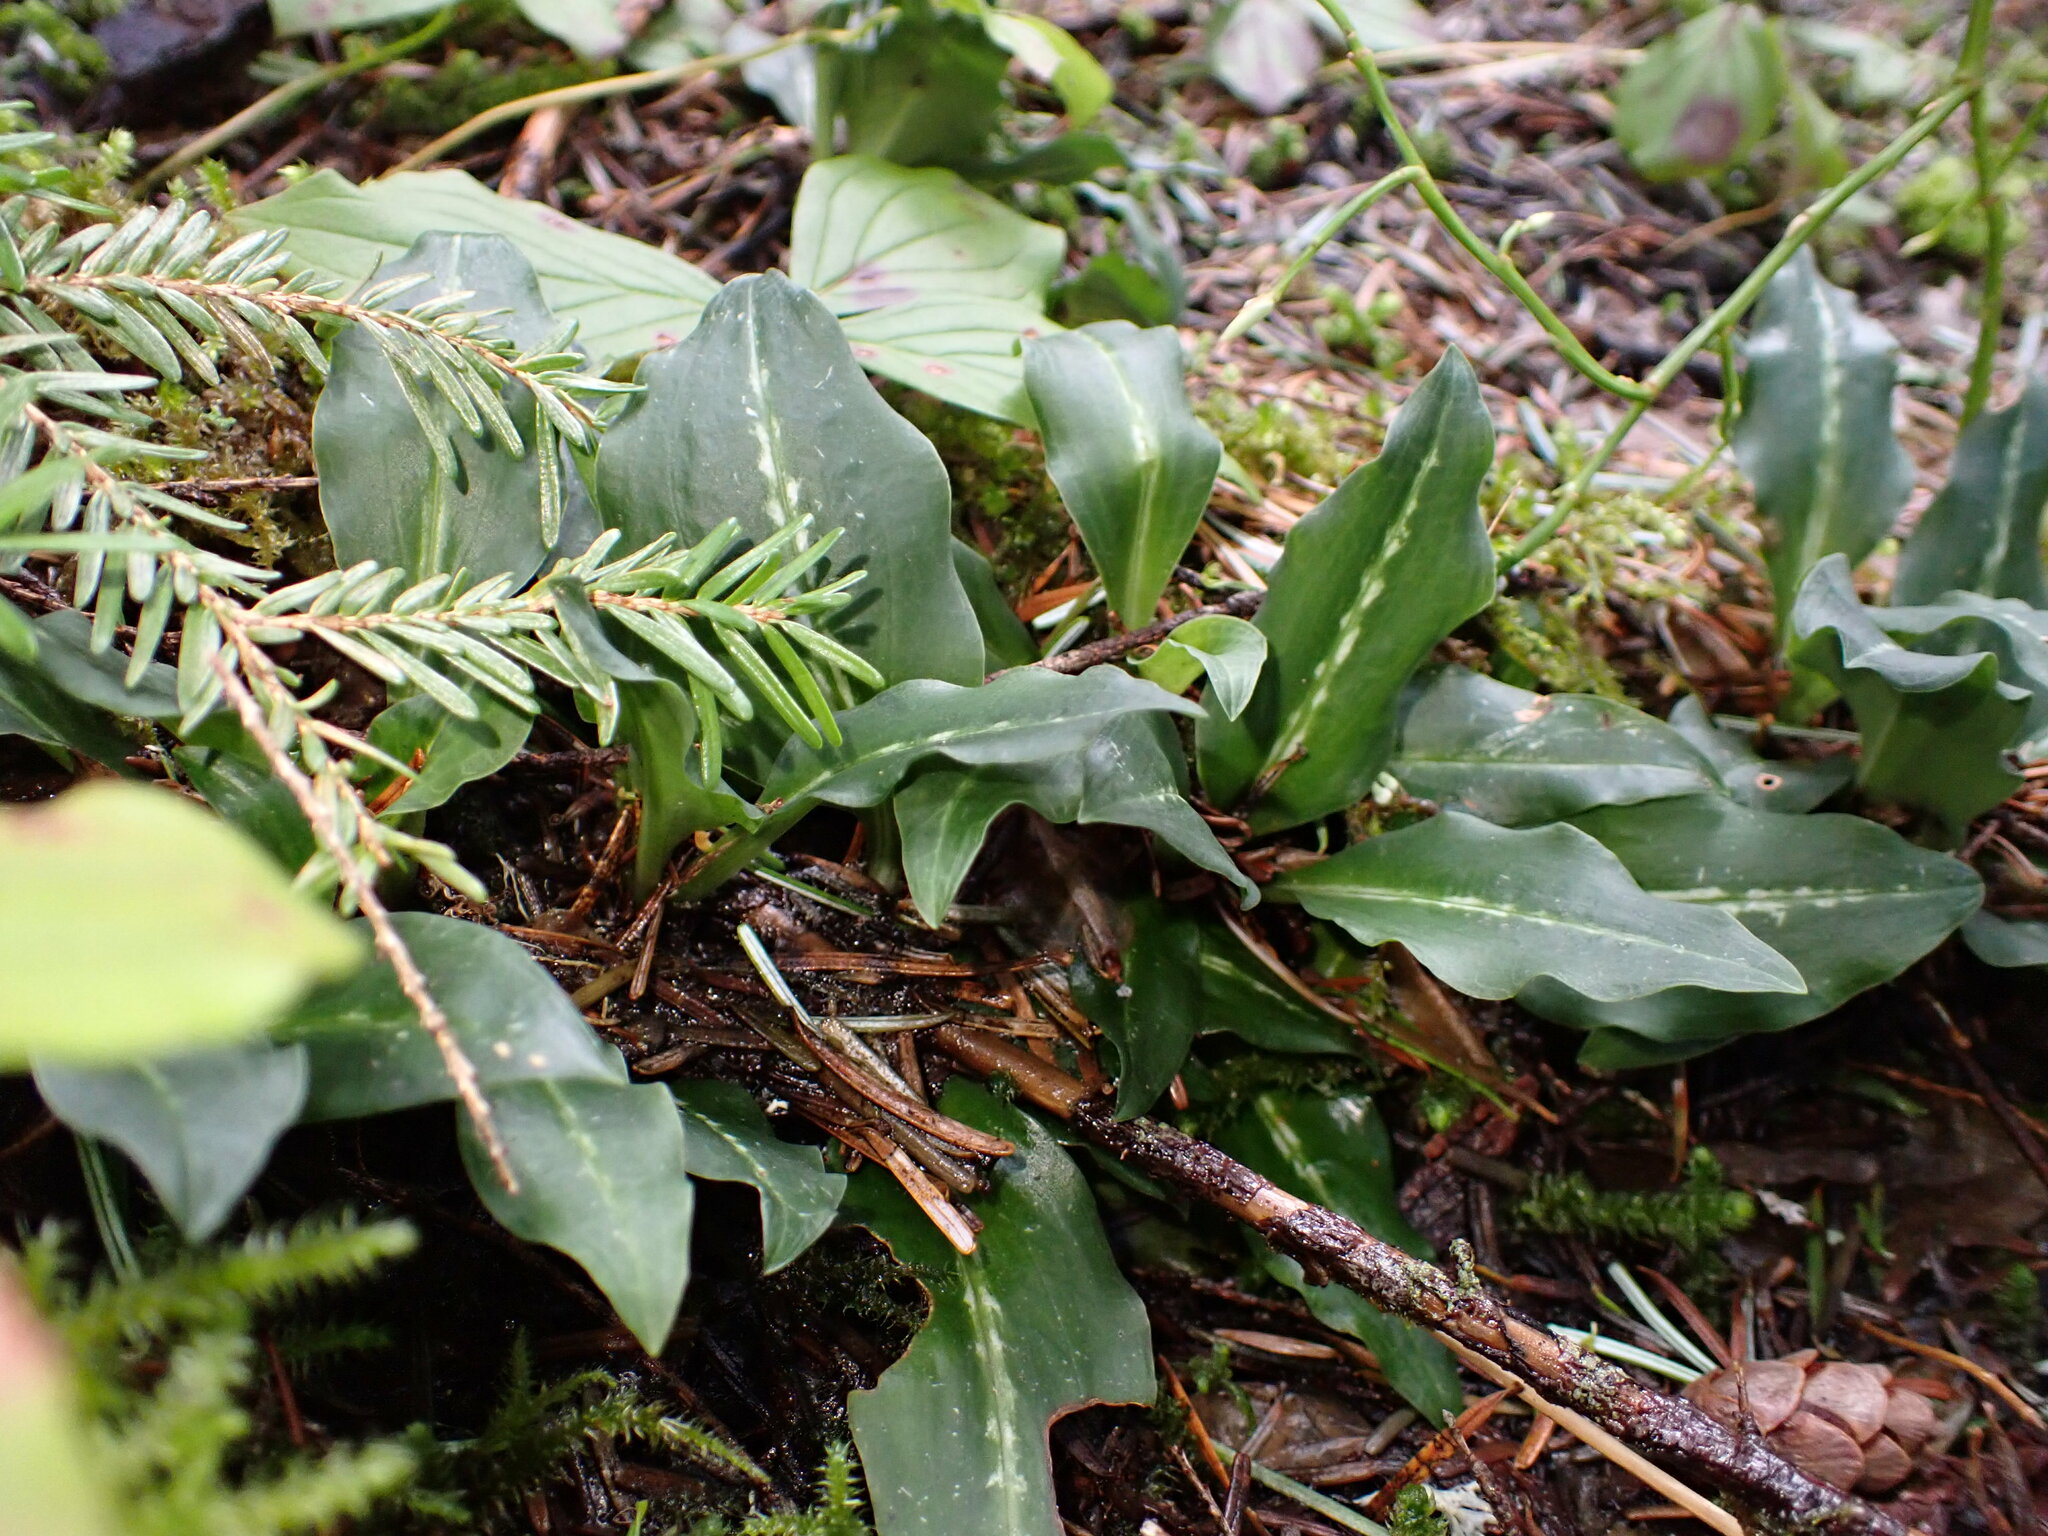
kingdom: Plantae
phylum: Tracheophyta
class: Liliopsida
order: Asparagales
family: Orchidaceae
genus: Goodyera
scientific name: Goodyera oblongifolia
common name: Giant rattlesnake-plantain
